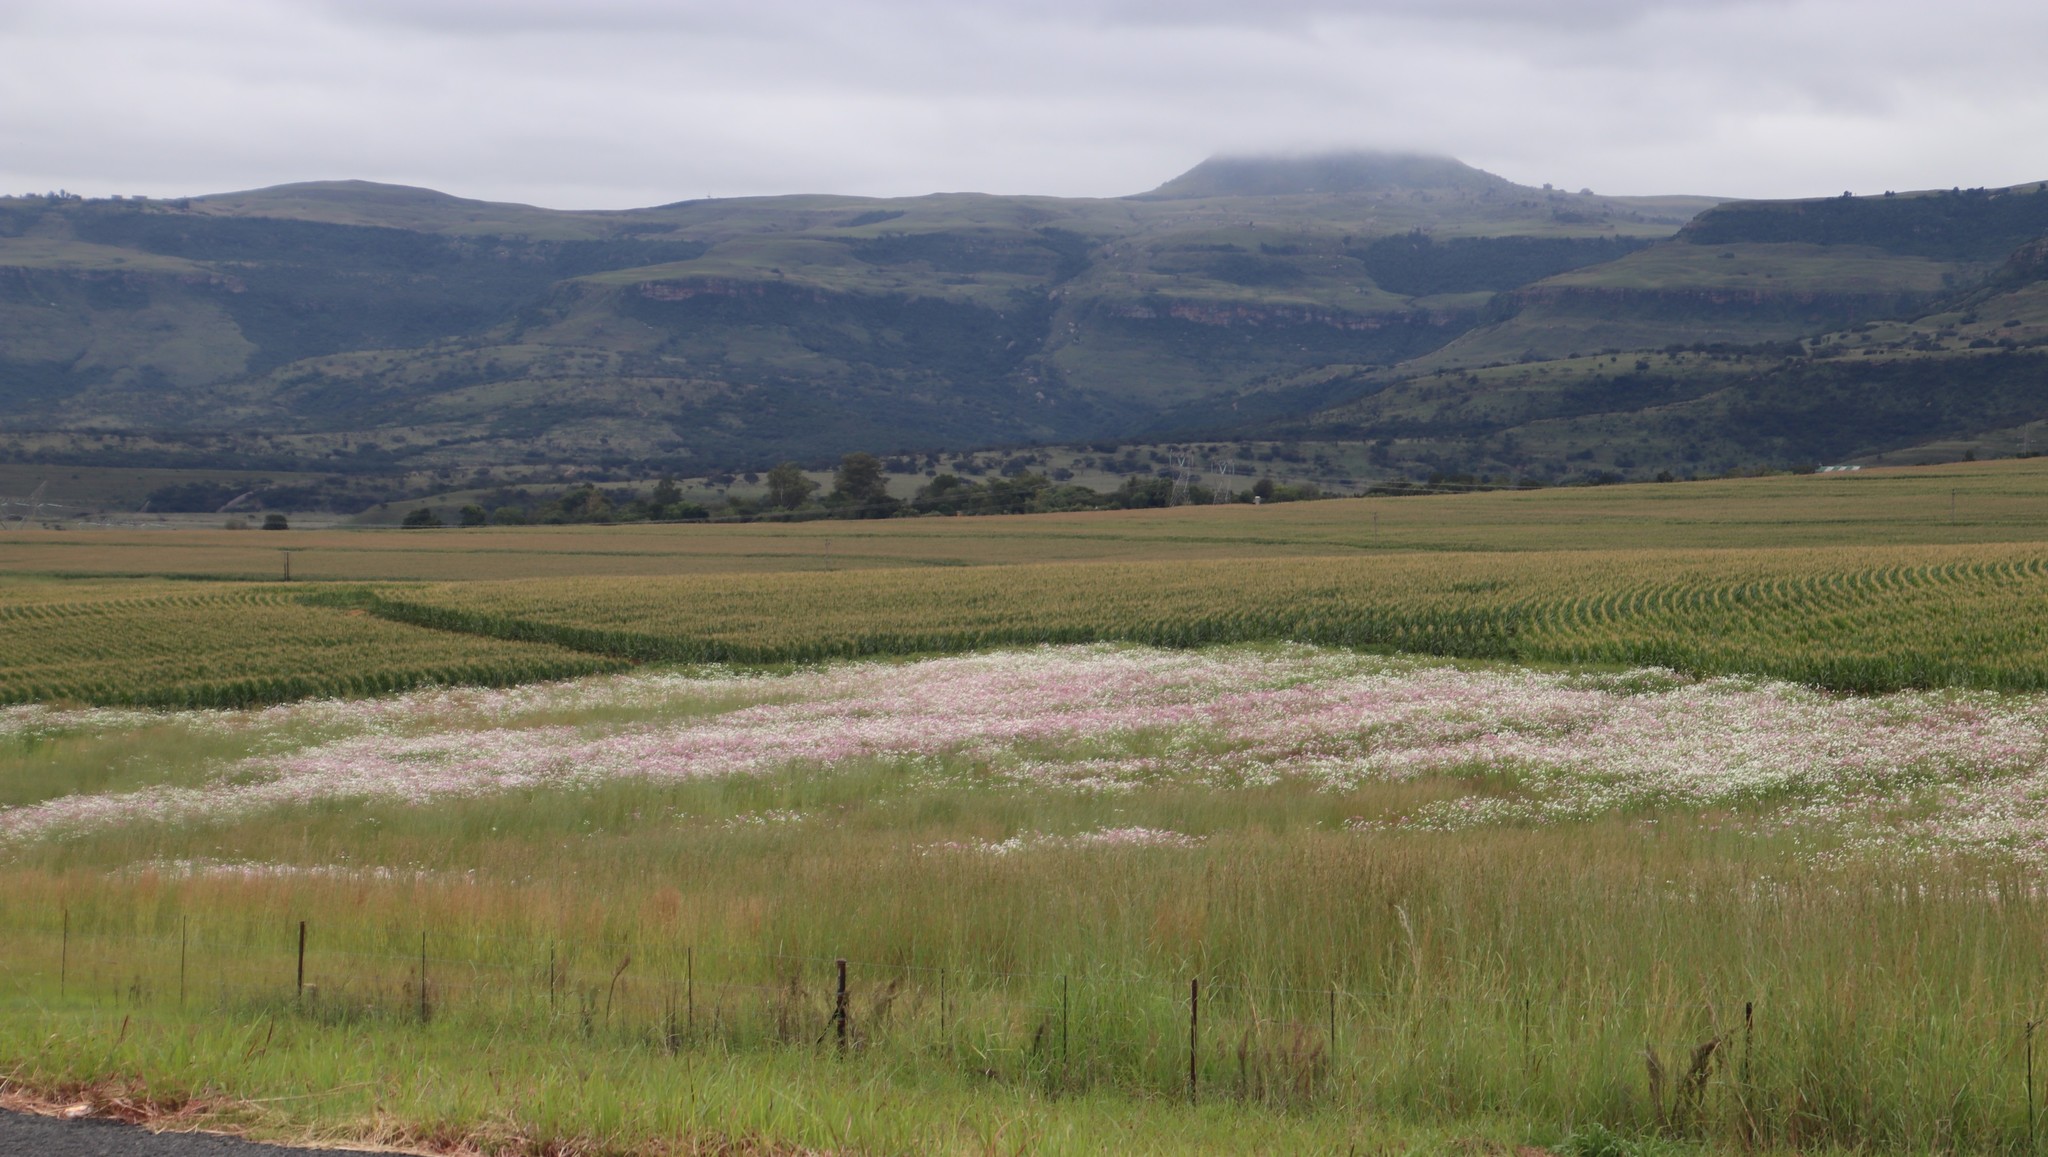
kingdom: Plantae
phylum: Tracheophyta
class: Magnoliopsida
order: Asterales
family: Asteraceae
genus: Cosmos
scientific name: Cosmos bipinnatus
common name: Garden cosmos
